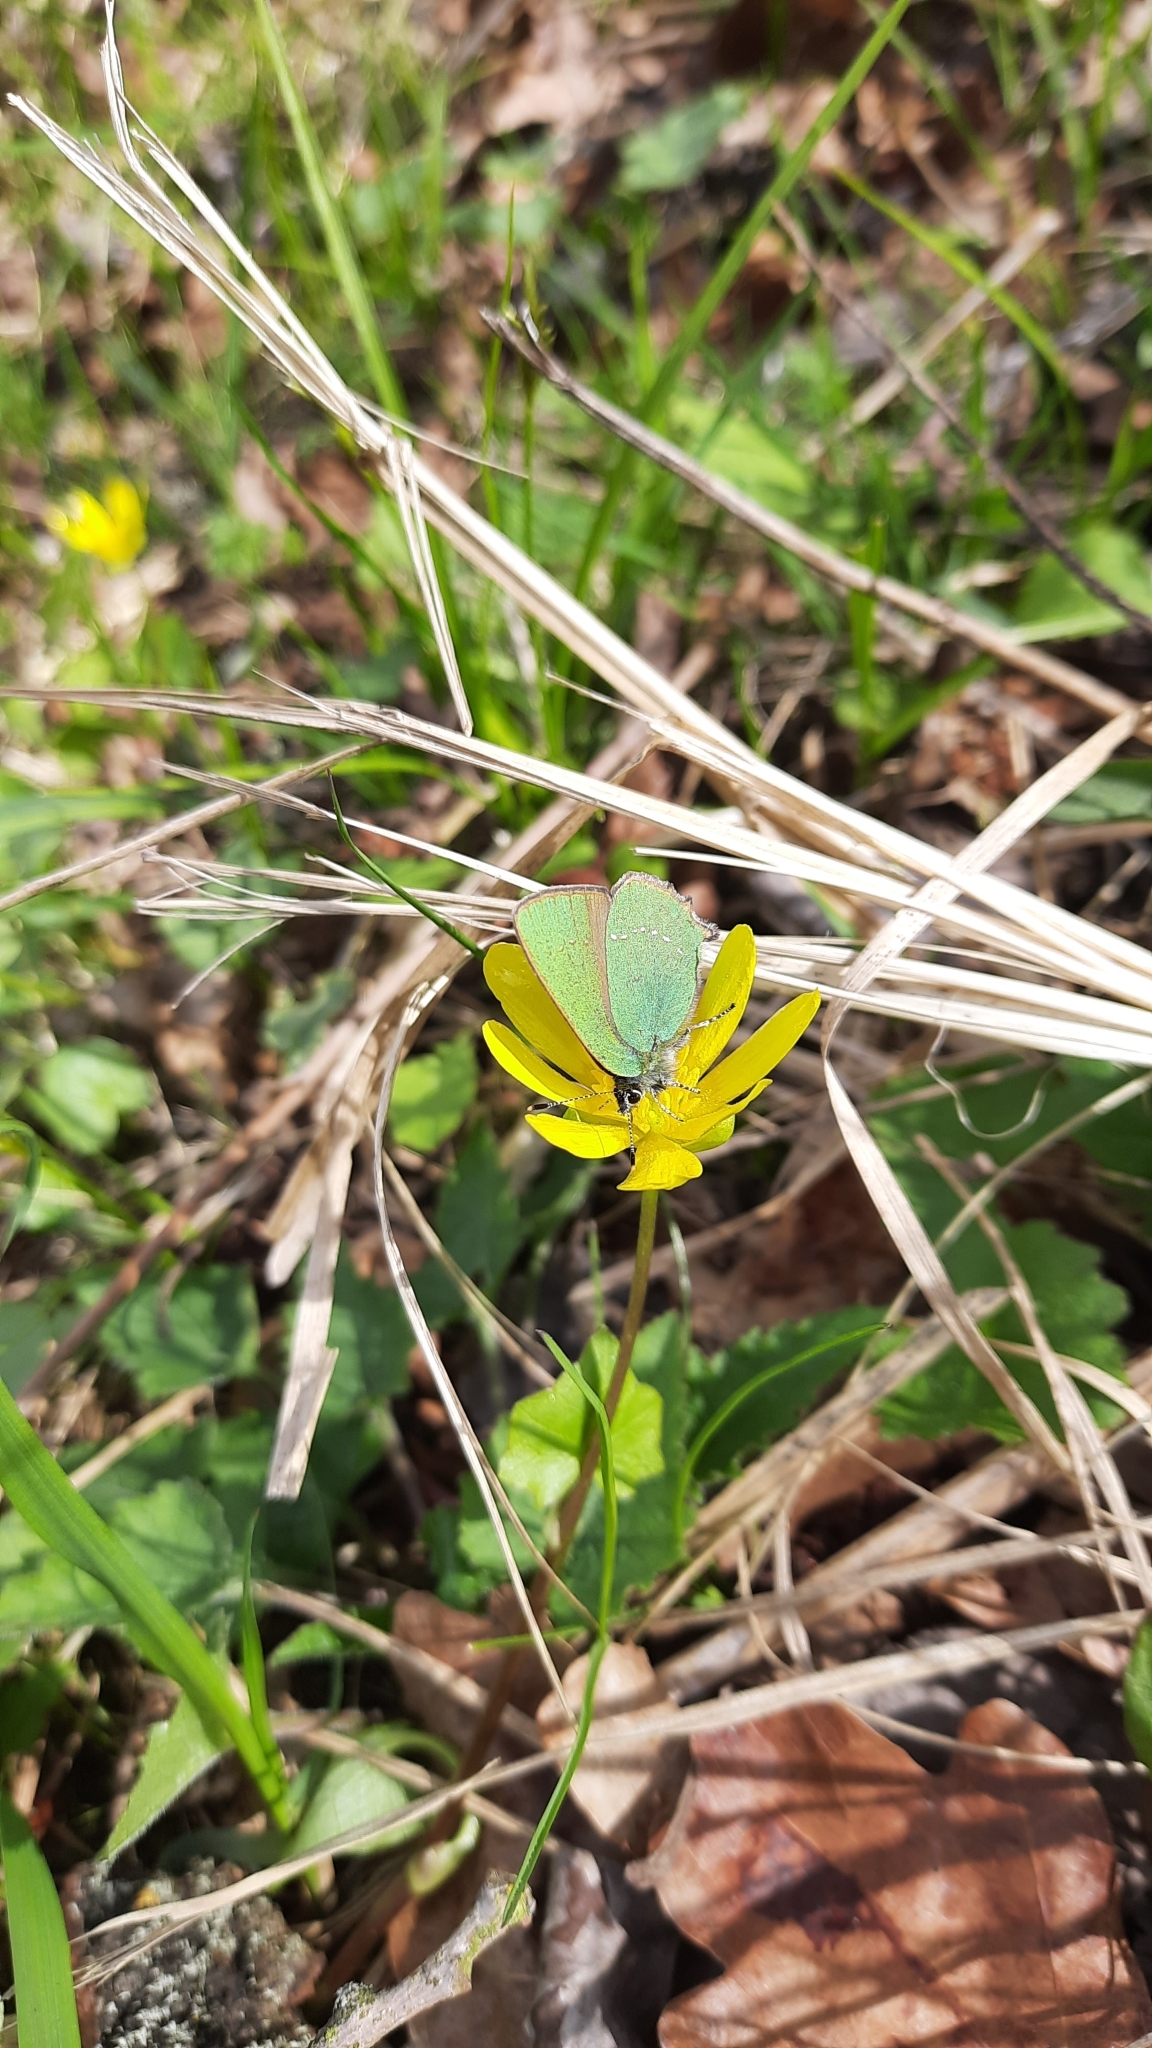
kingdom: Animalia
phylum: Arthropoda
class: Insecta
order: Lepidoptera
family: Lycaenidae
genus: Callophrys
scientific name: Callophrys rubi
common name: Green hairstreak
